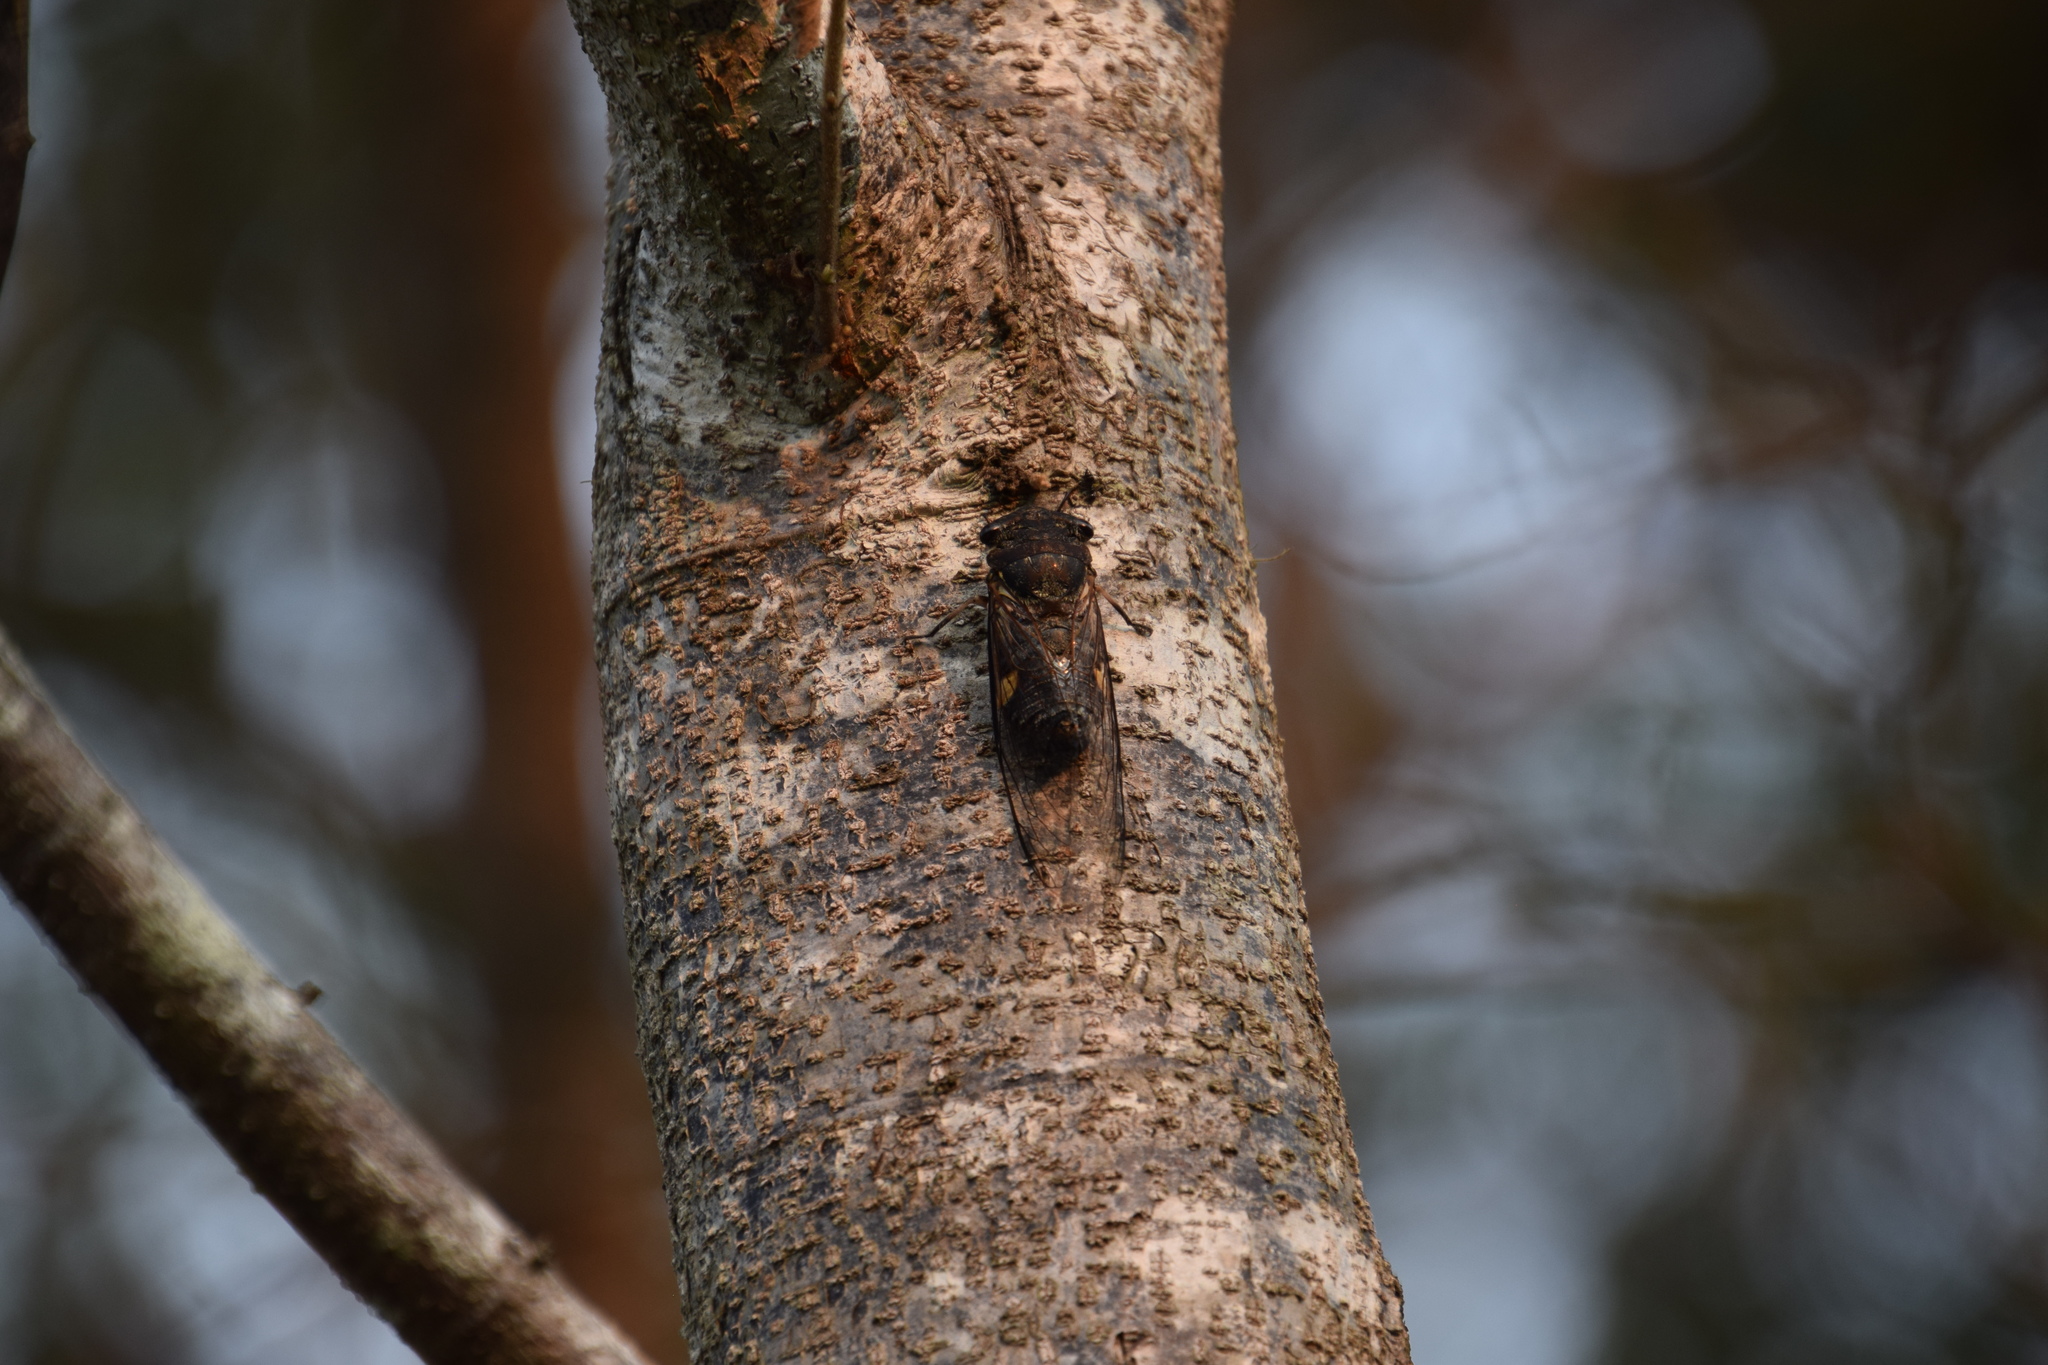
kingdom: Animalia
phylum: Arthropoda
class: Insecta
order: Hemiptera
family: Cicadidae
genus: Psaltoda
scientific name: Psaltoda harrisii
